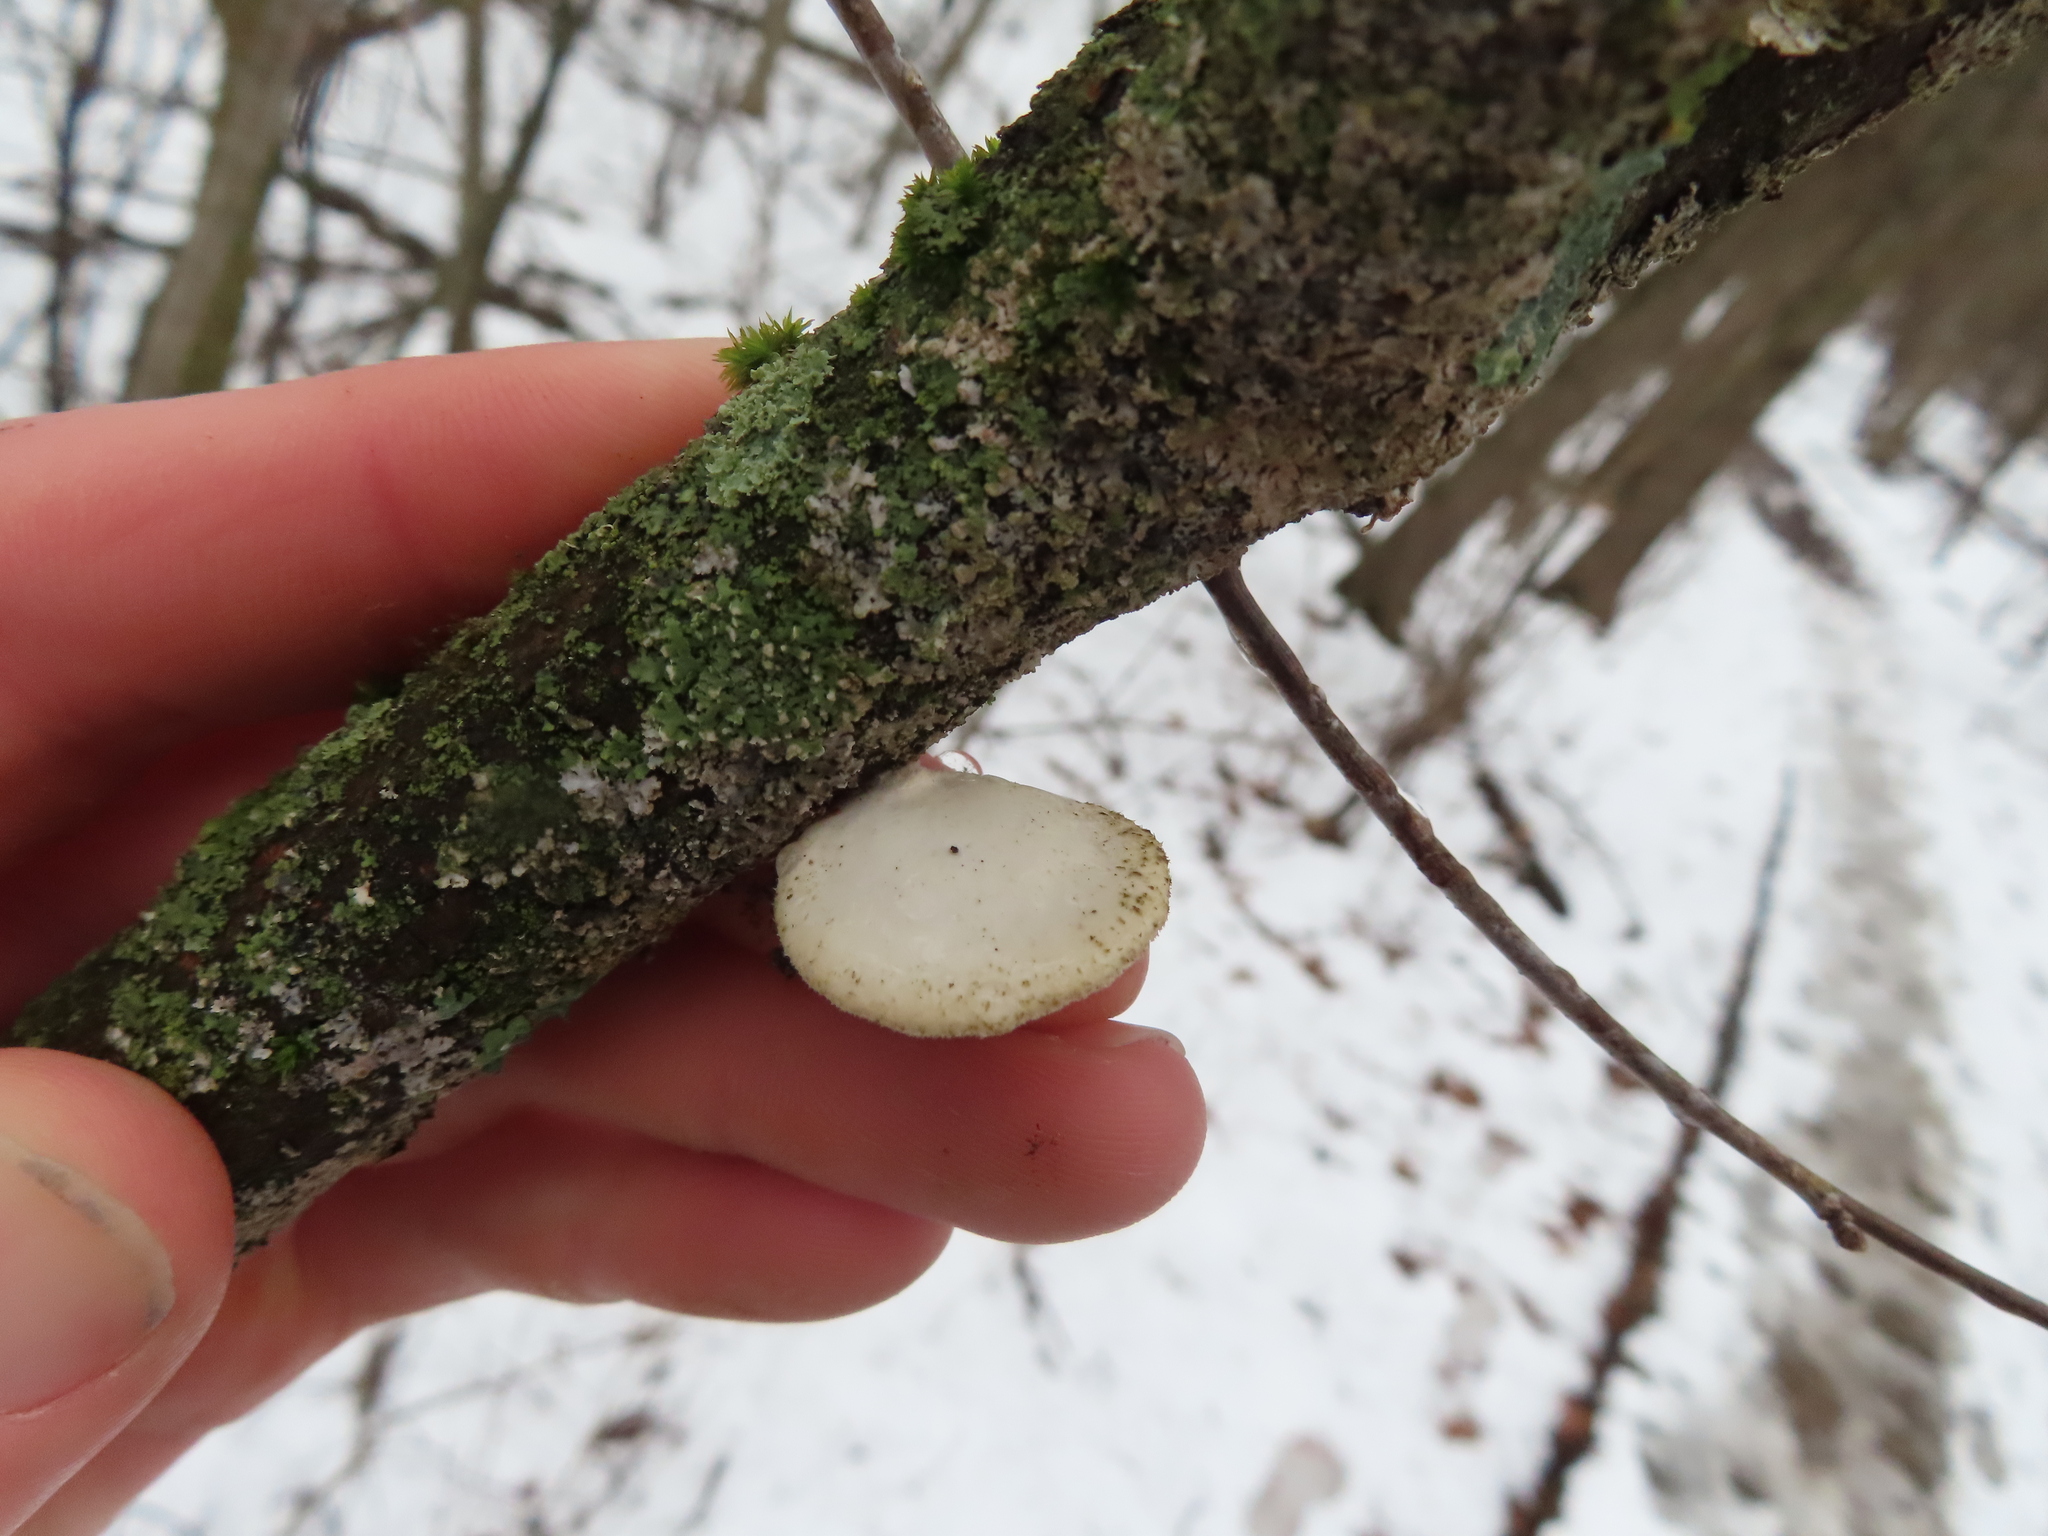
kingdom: Fungi
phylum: Basidiomycota
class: Agaricomycetes
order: Polyporales
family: Polyporaceae
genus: Neofavolus
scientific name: Neofavolus alveolaris
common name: Hexagonal-pored polypore
